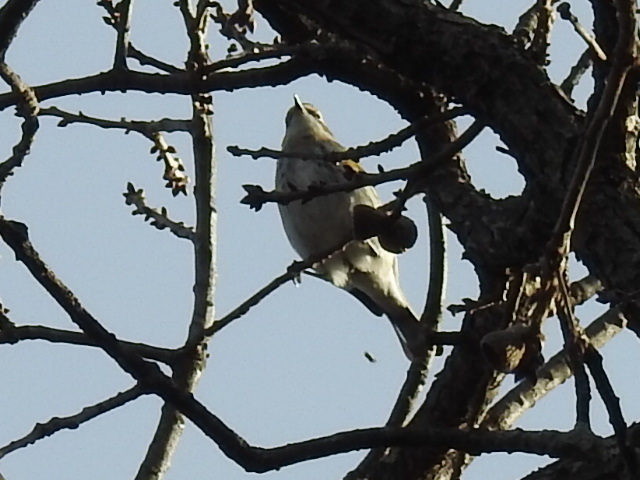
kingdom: Animalia
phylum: Chordata
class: Aves
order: Passeriformes
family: Parulidae
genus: Setophaga
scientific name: Setophaga coronata
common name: Myrtle warbler
